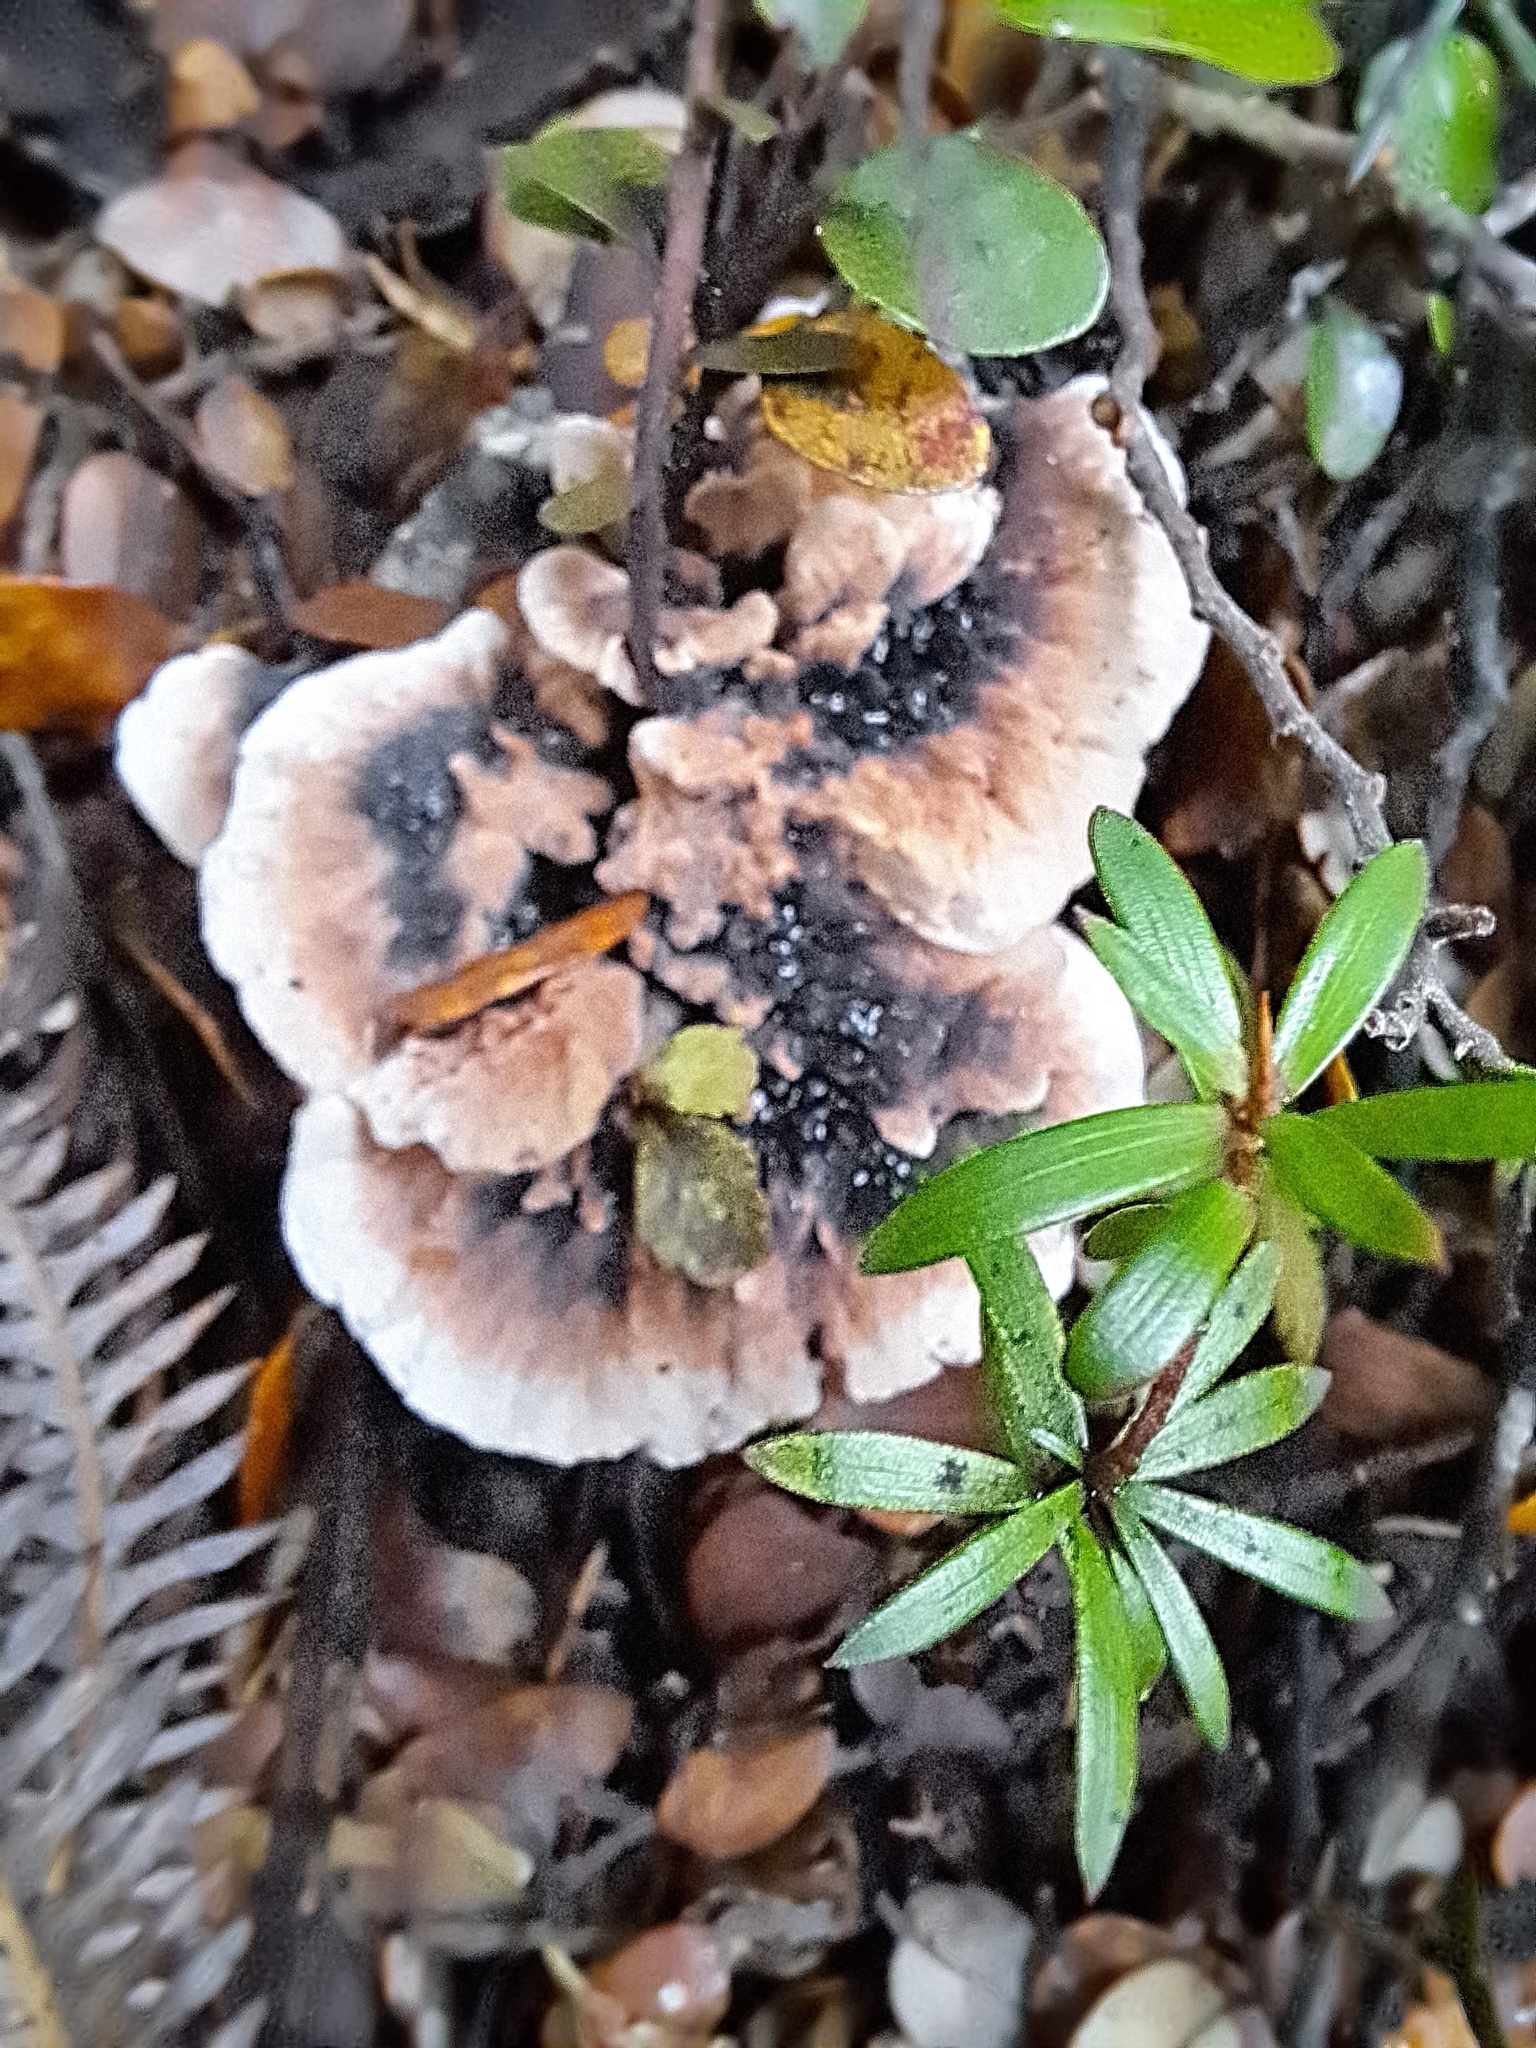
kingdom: Fungi
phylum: Basidiomycota
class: Agaricomycetes
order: Polyporales
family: Podoscyphaceae
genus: Podoscypha
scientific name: Podoscypha petalodes
